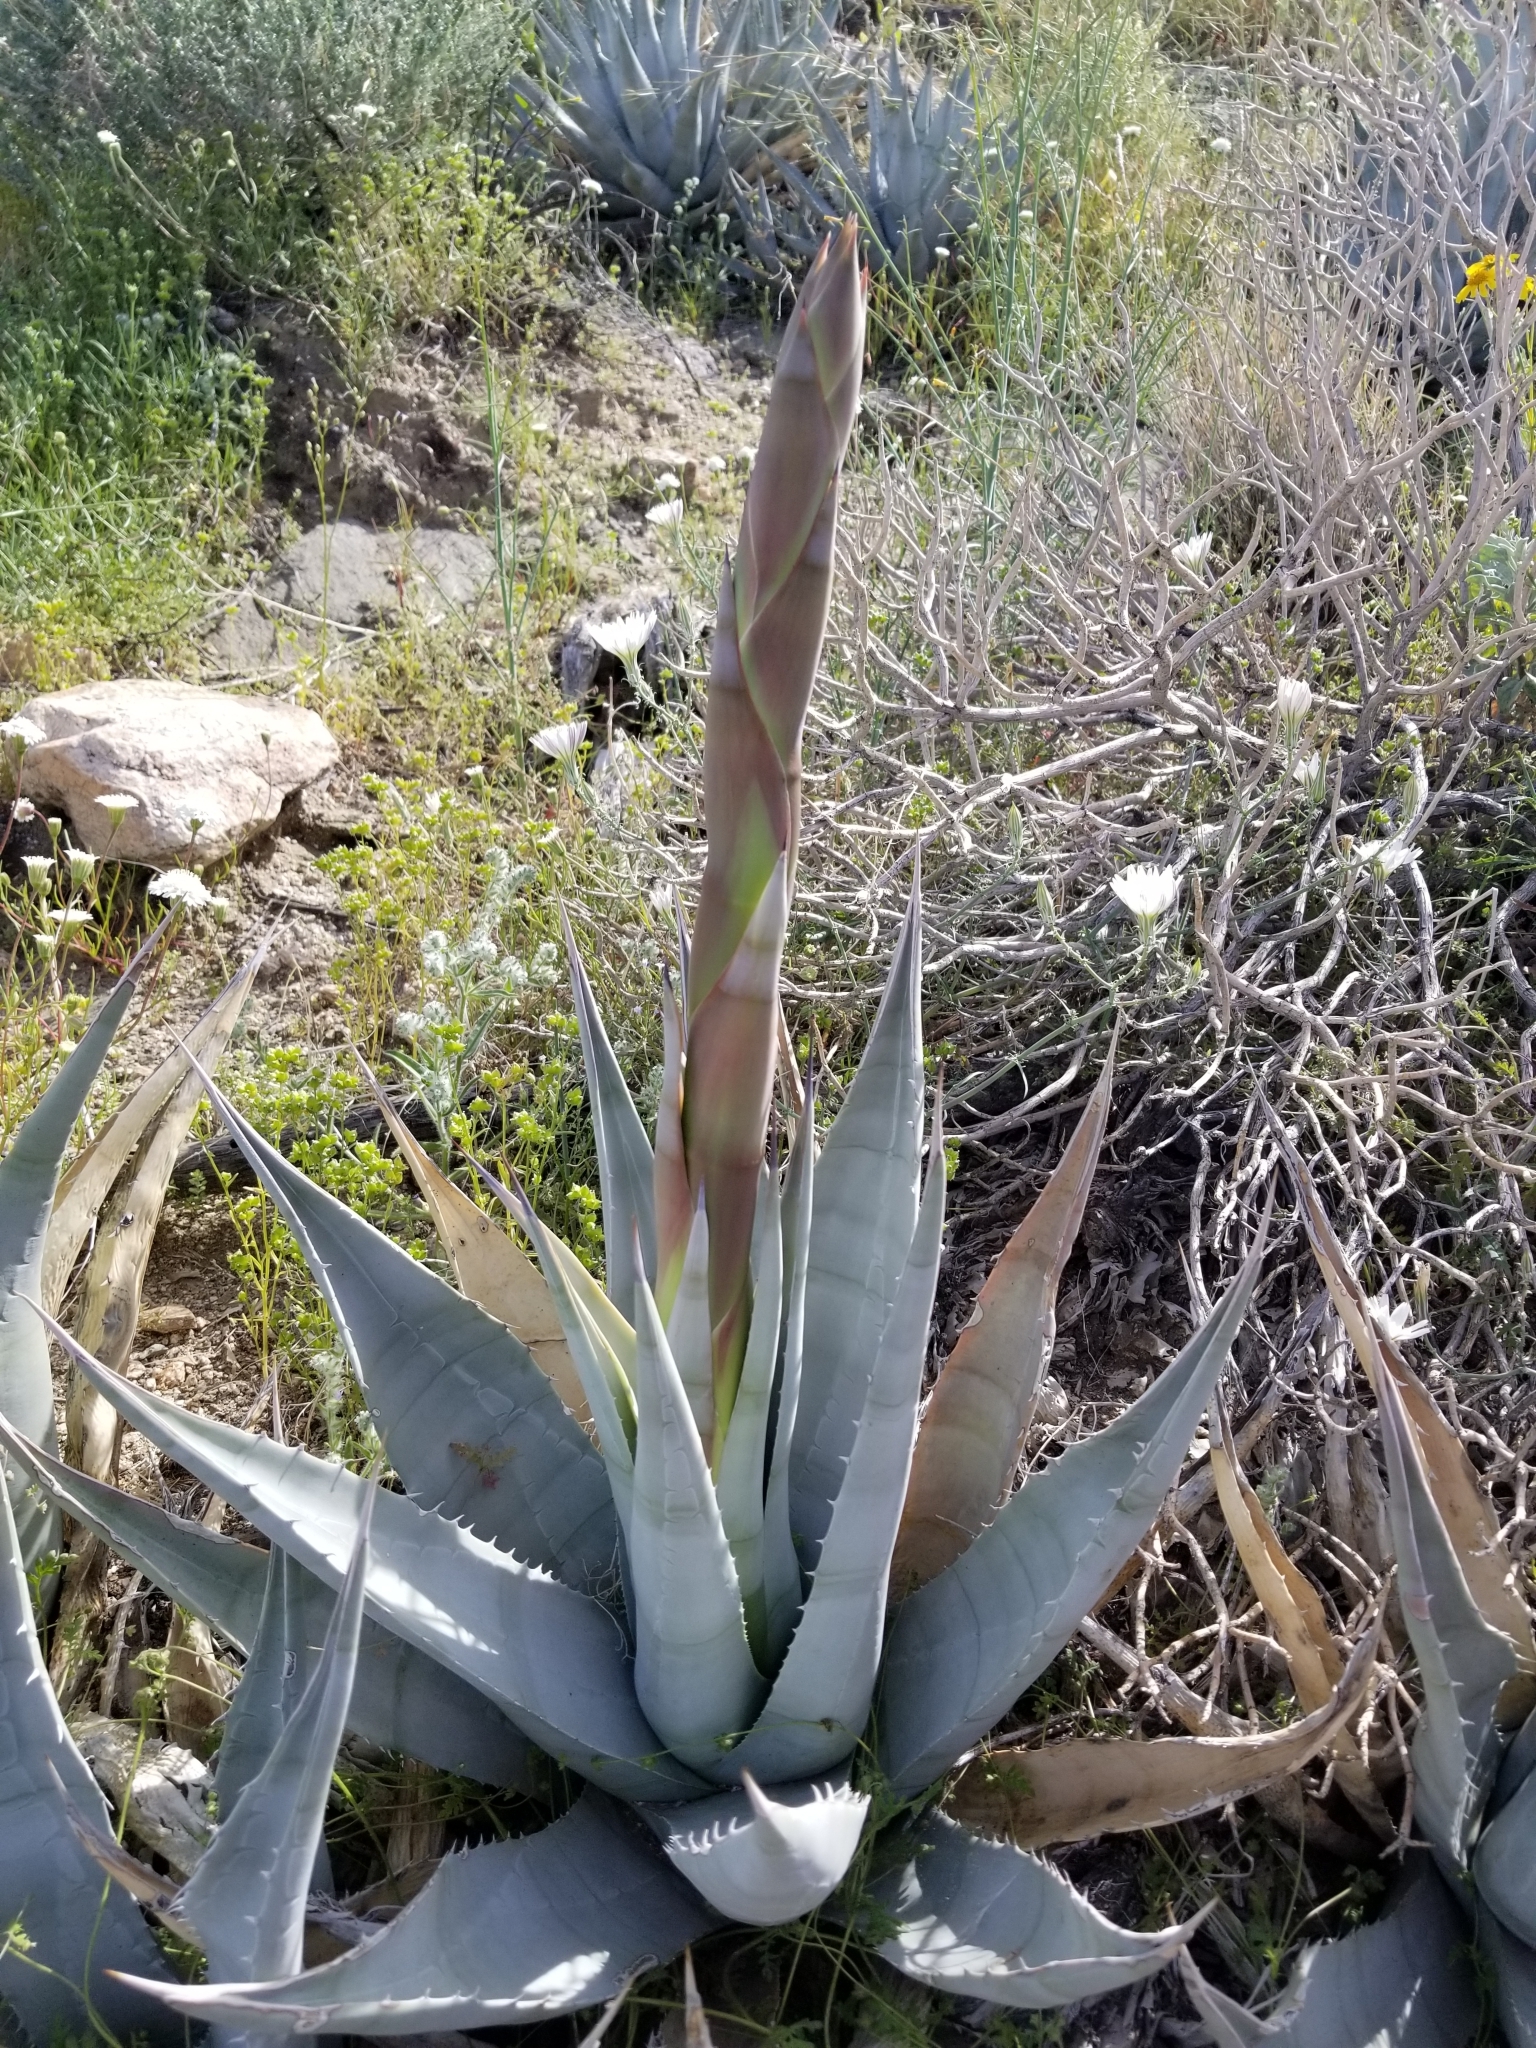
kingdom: Plantae
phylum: Tracheophyta
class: Liliopsida
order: Asparagales
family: Asparagaceae
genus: Agave
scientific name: Agave deserti
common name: Desert agave
